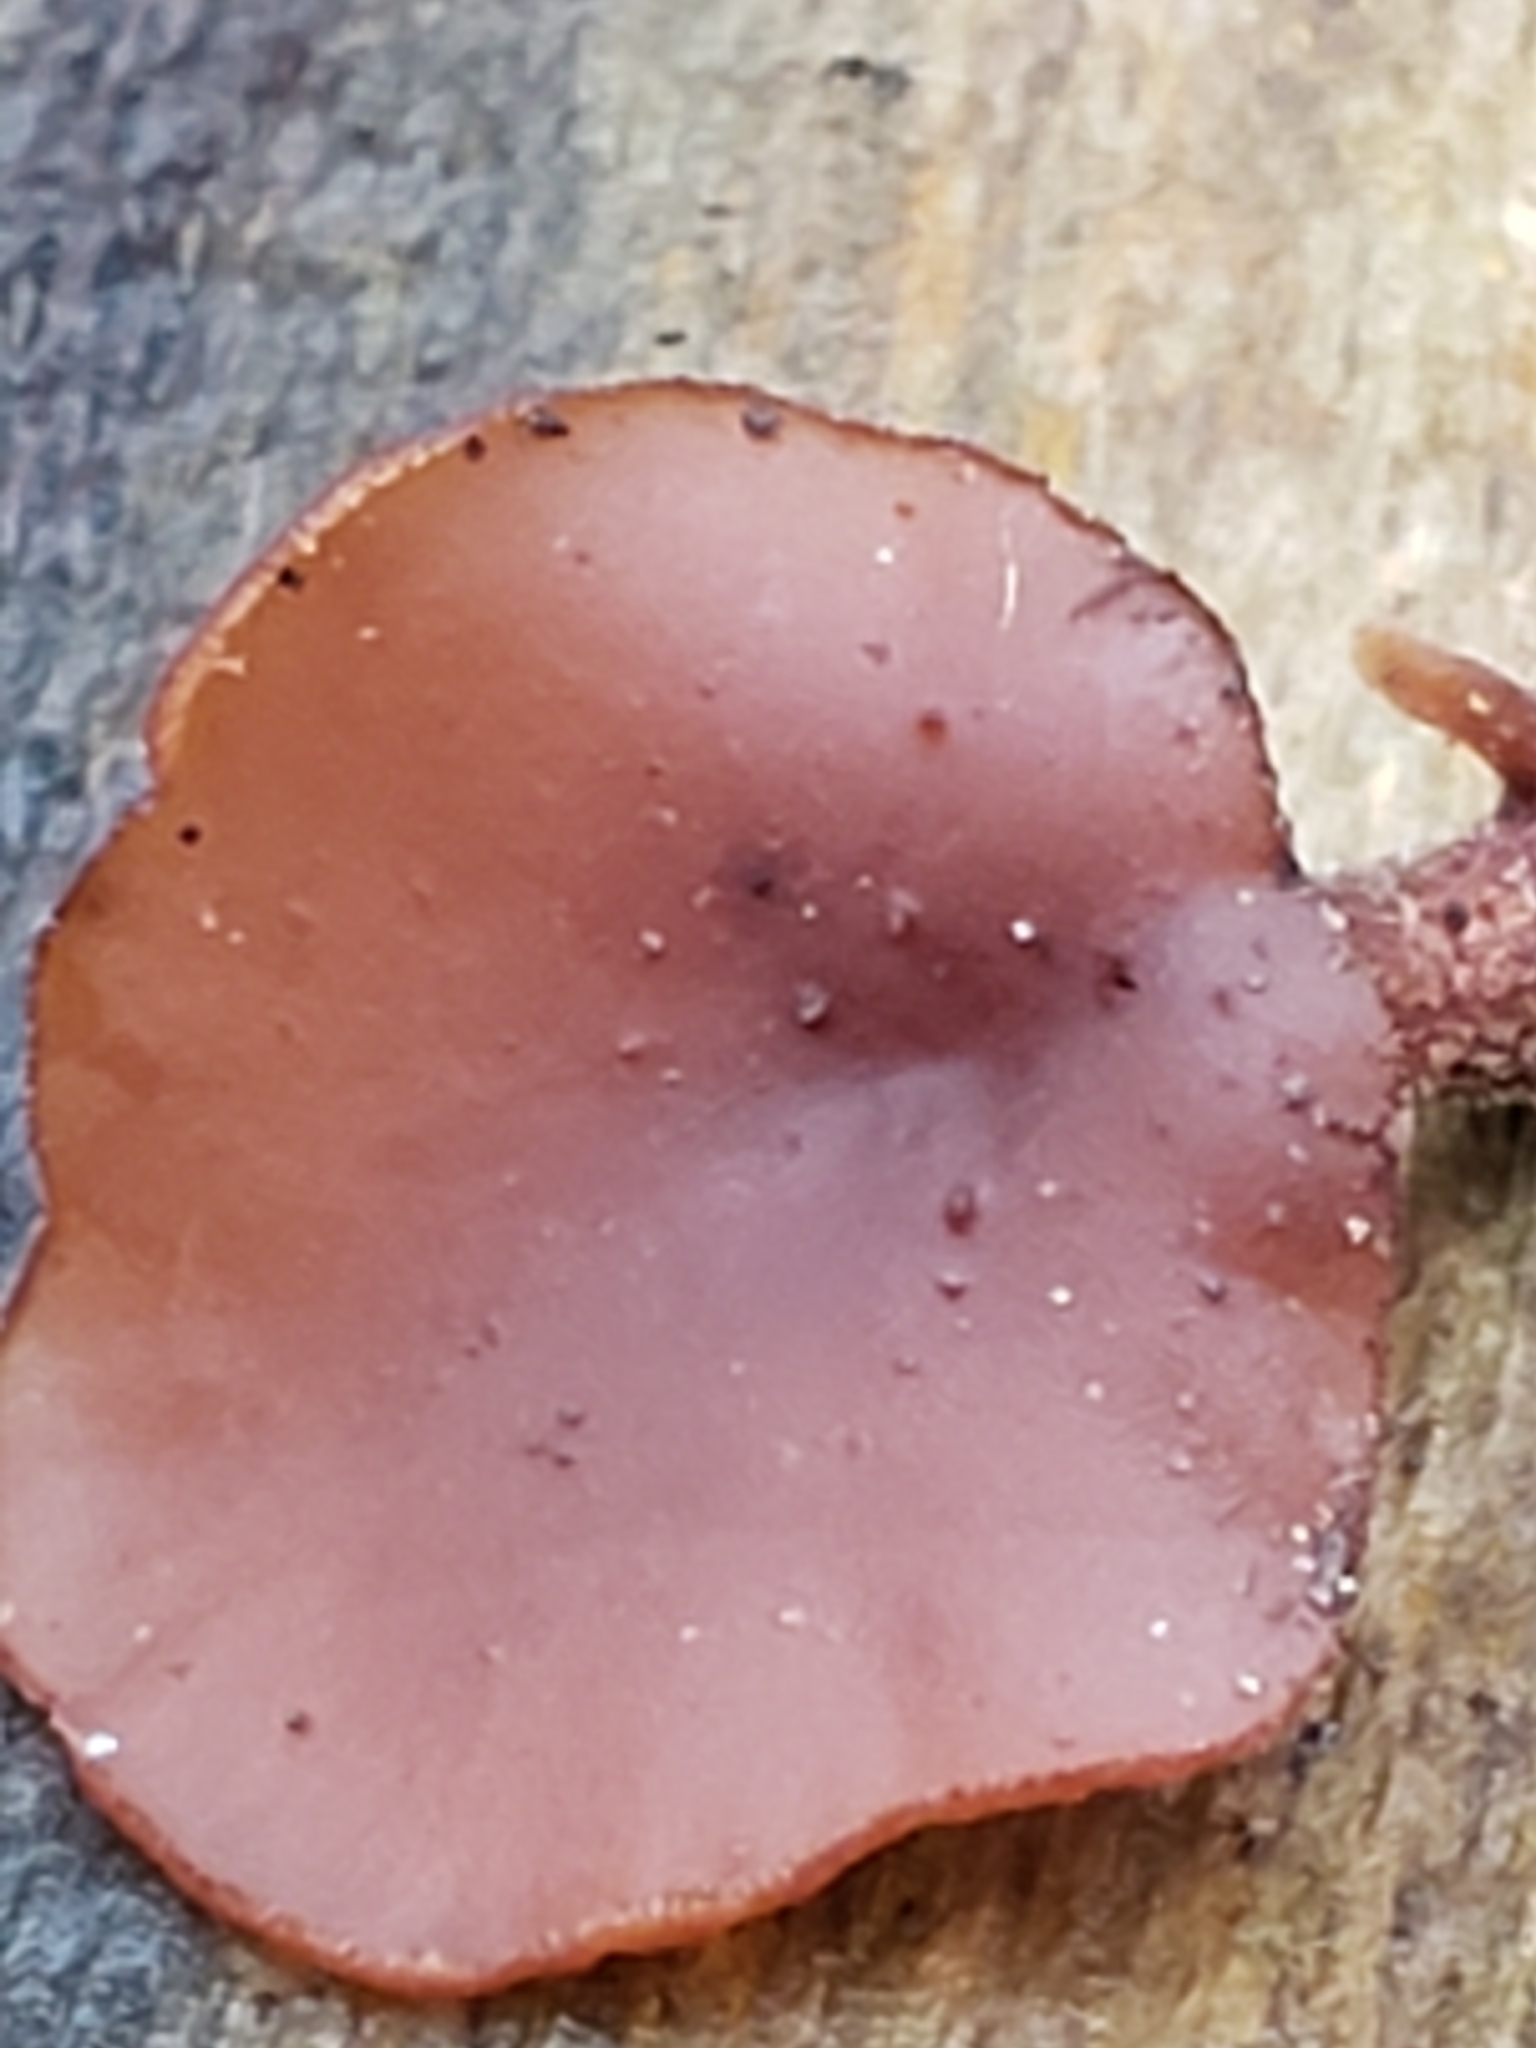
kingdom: Fungi
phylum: Basidiomycota
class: Dacrymycetes
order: Dacrymycetales
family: Dacrymycetaceae
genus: Dacryopinax
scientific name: Dacryopinax elegans
